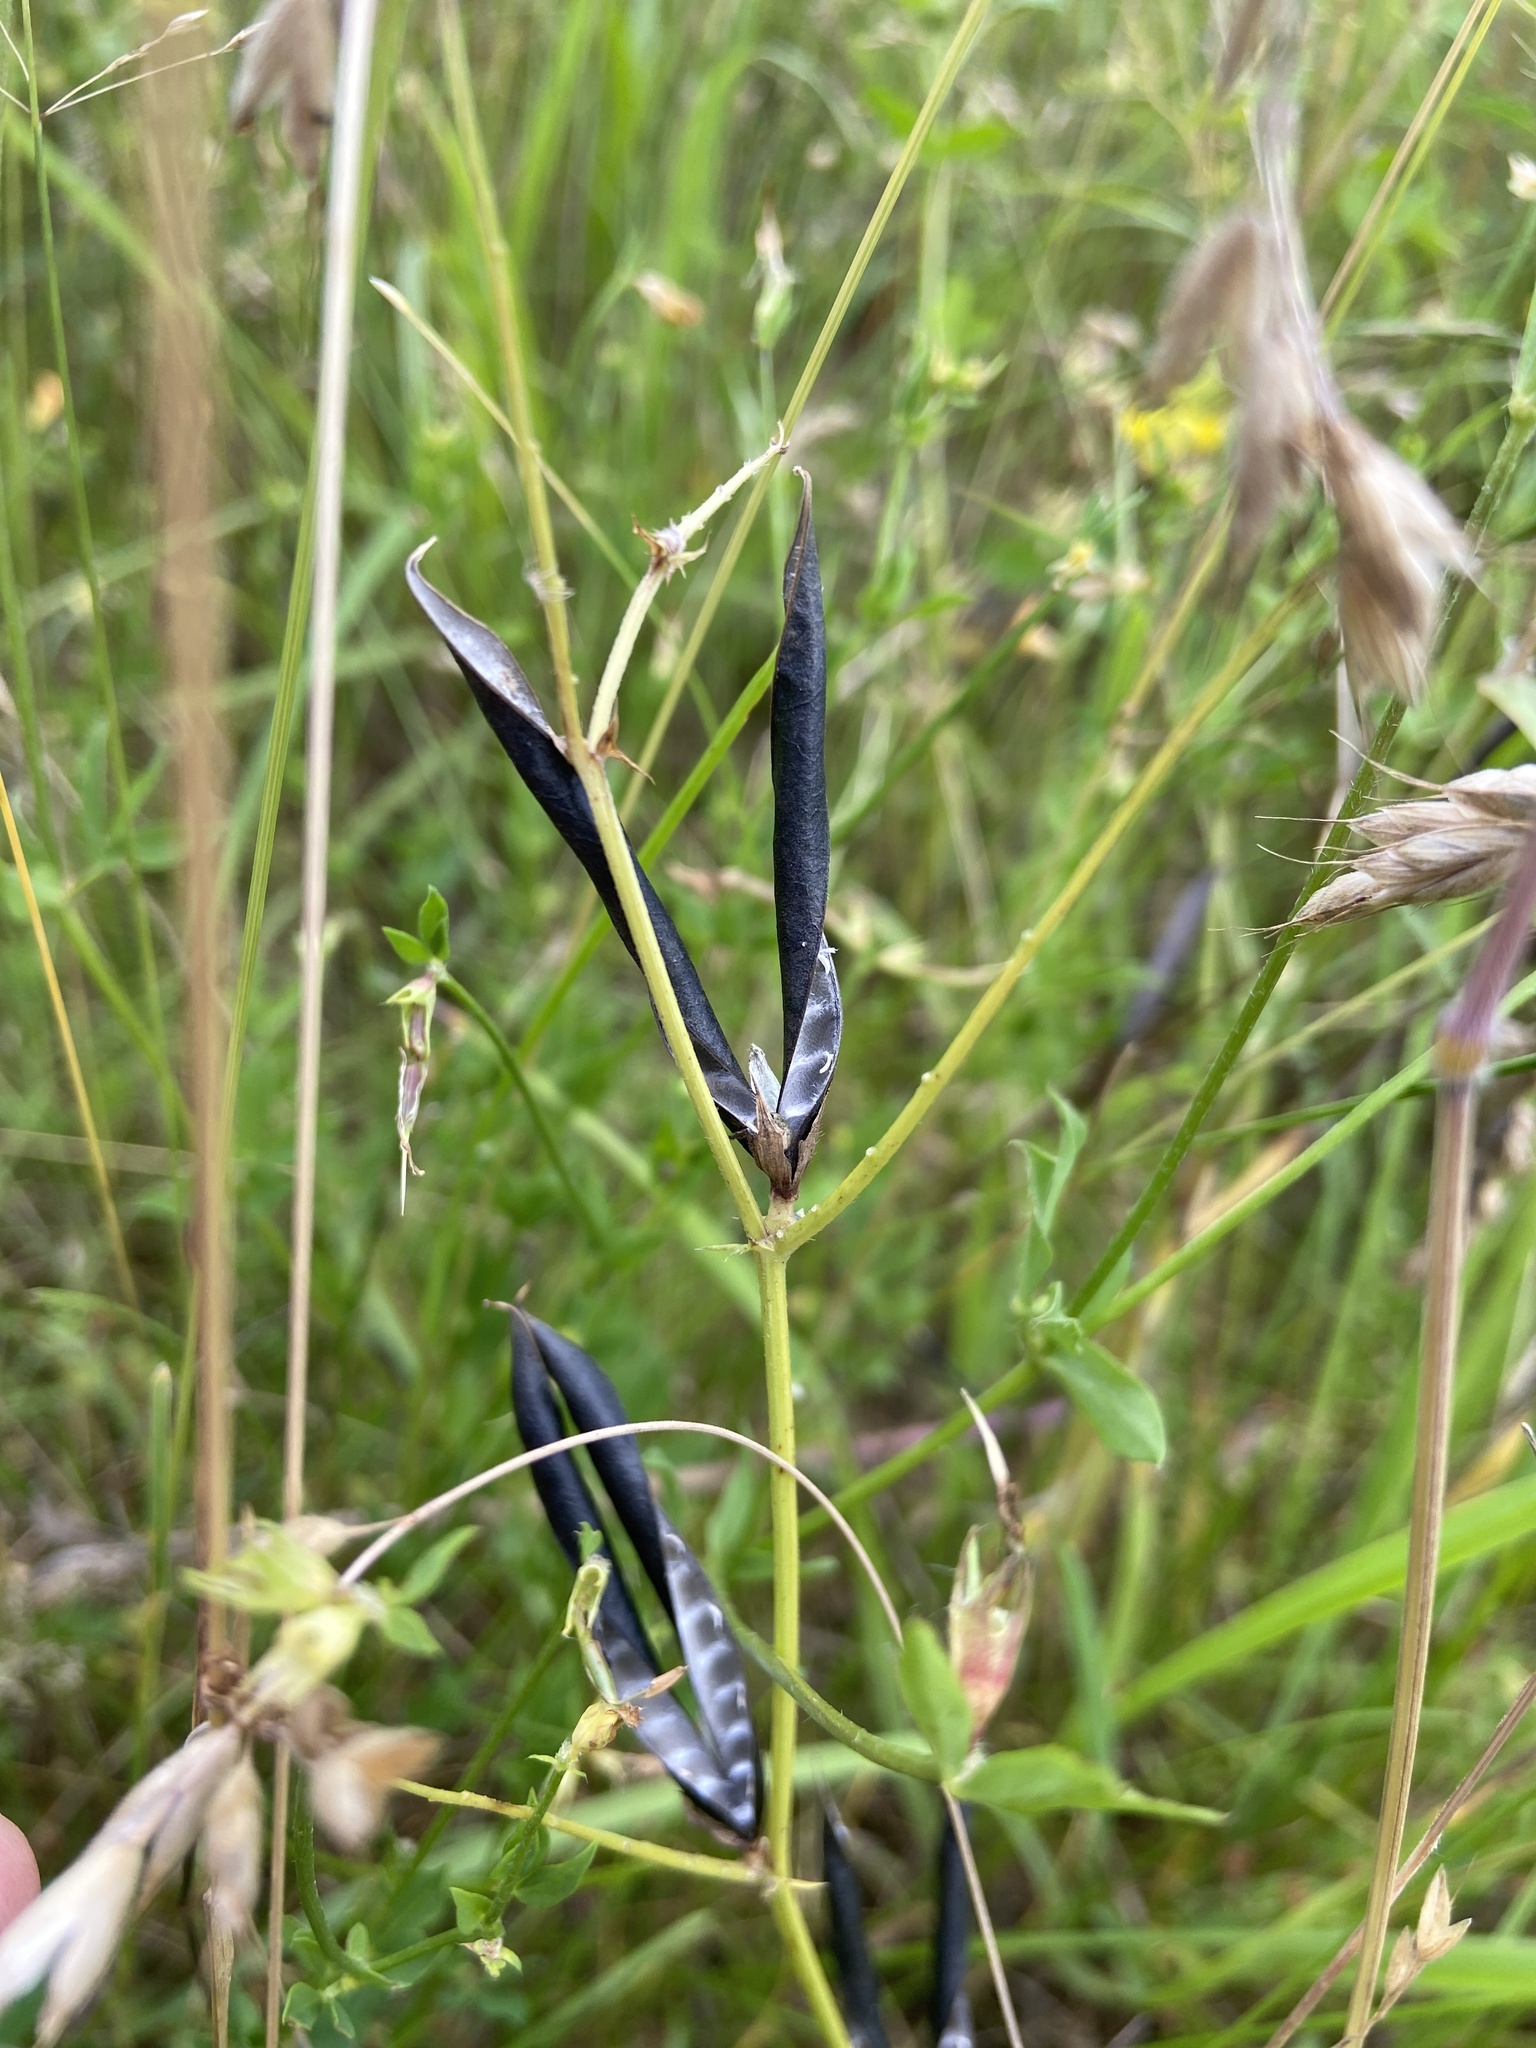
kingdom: Plantae
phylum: Tracheophyta
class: Magnoliopsida
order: Fabales
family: Fabaceae
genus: Vicia
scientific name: Vicia sativa
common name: Garden vetch
